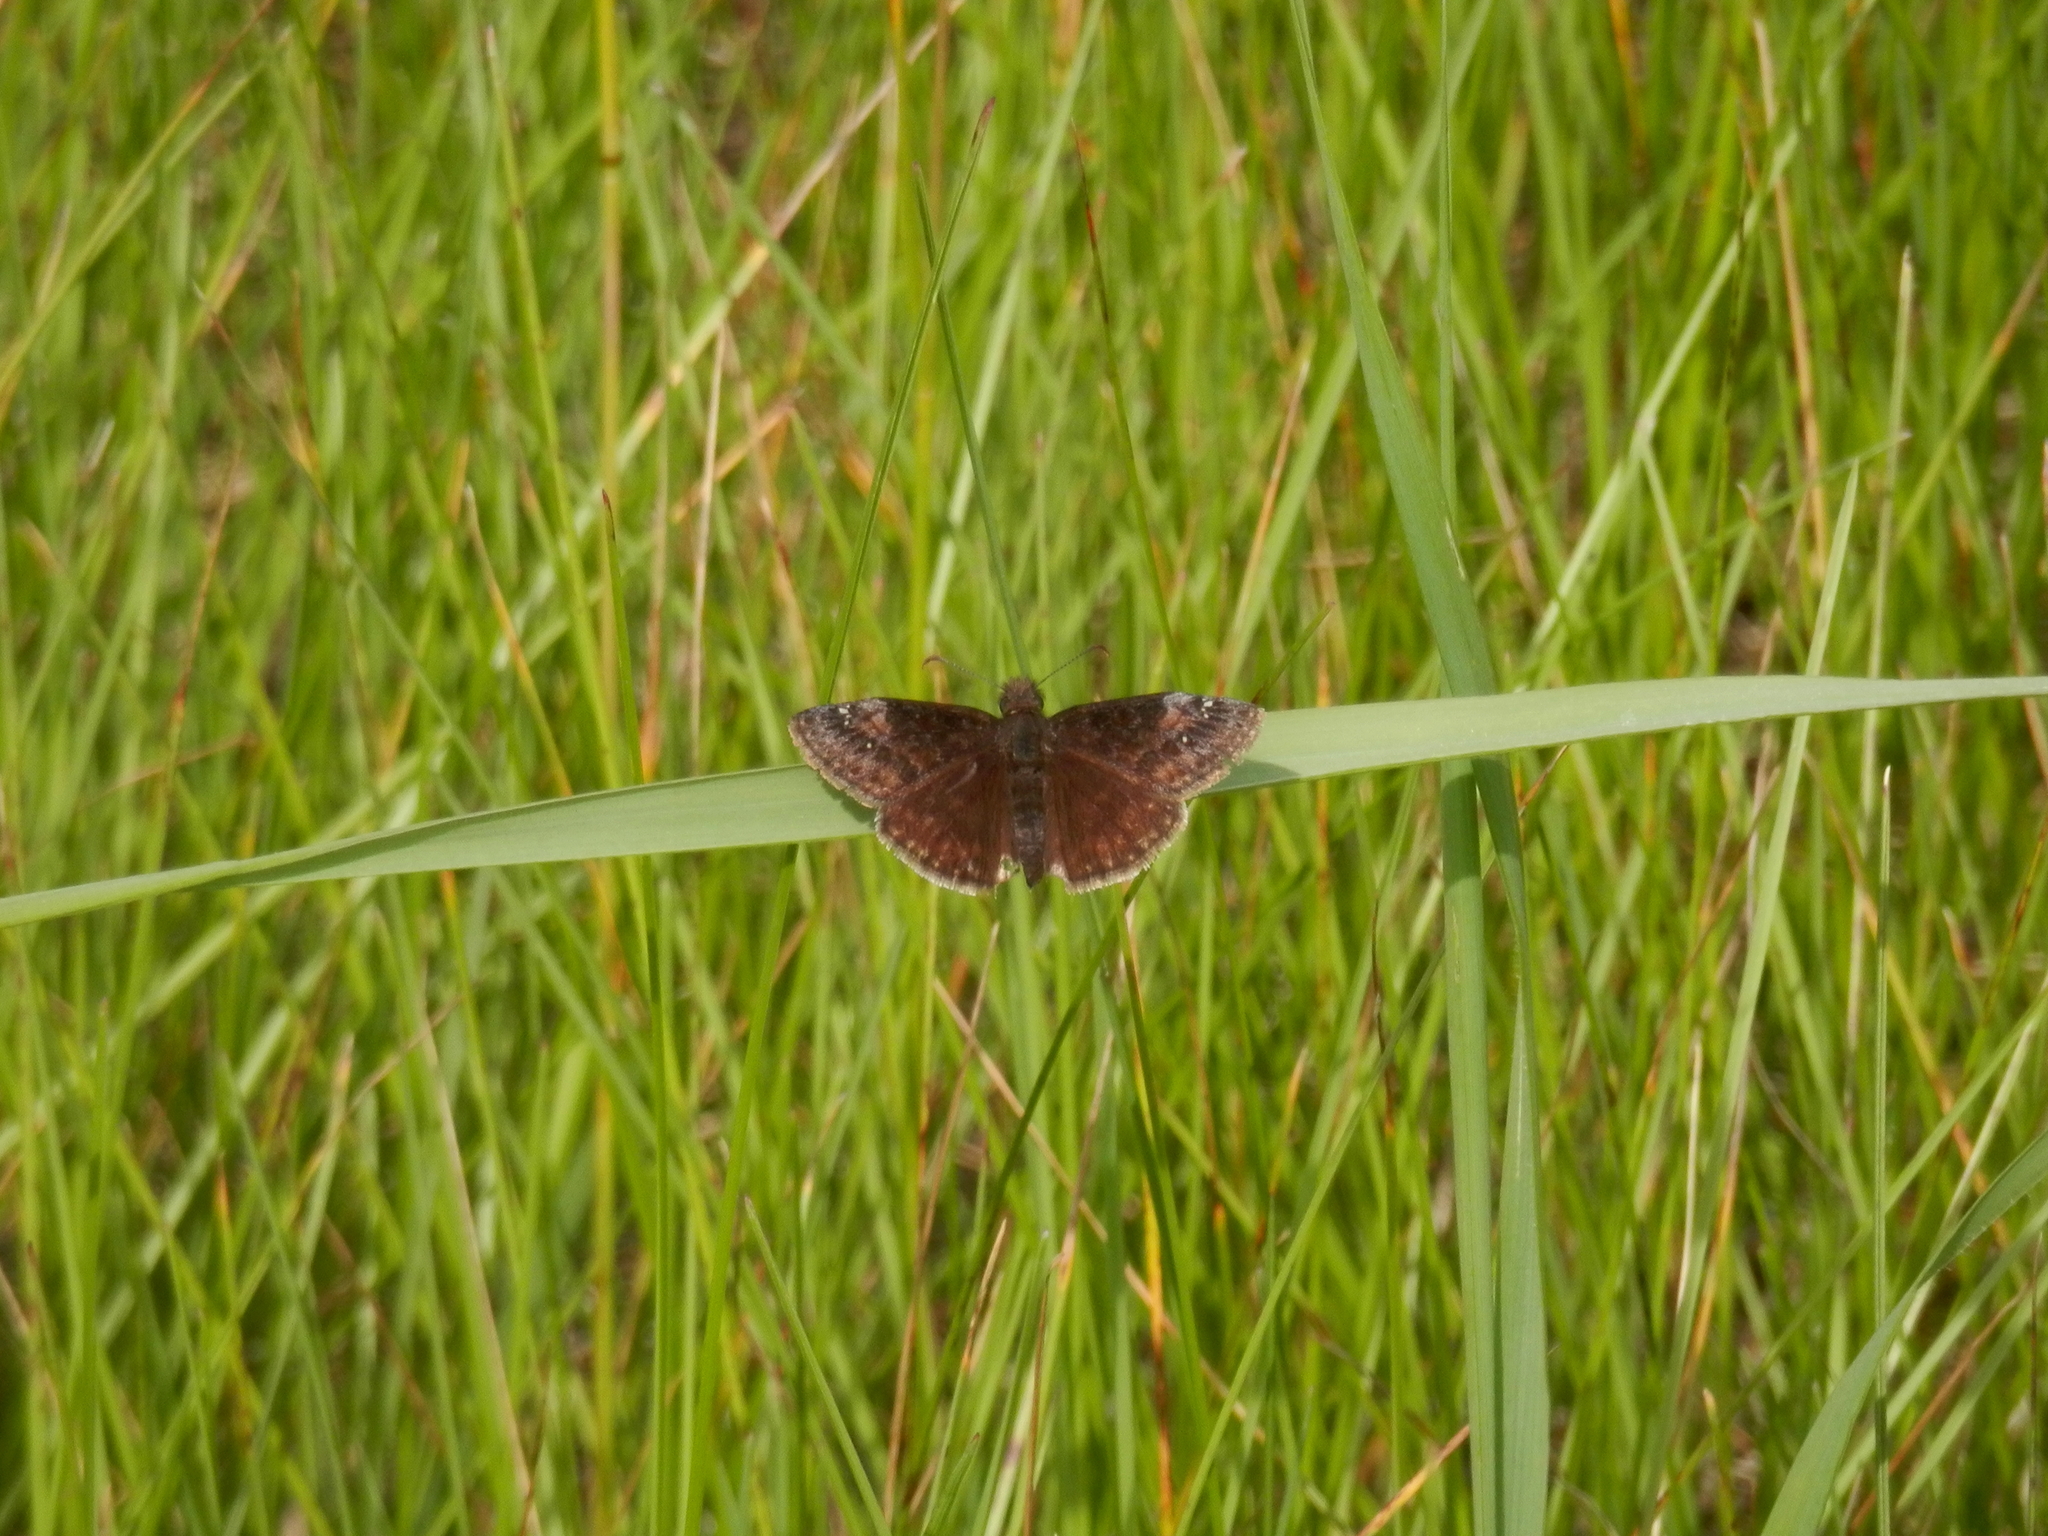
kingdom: Animalia
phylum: Arthropoda
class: Insecta
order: Lepidoptera
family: Hesperiidae
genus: Erynnis
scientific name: Erynnis baptisiae
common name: Wild indigo duskywing
